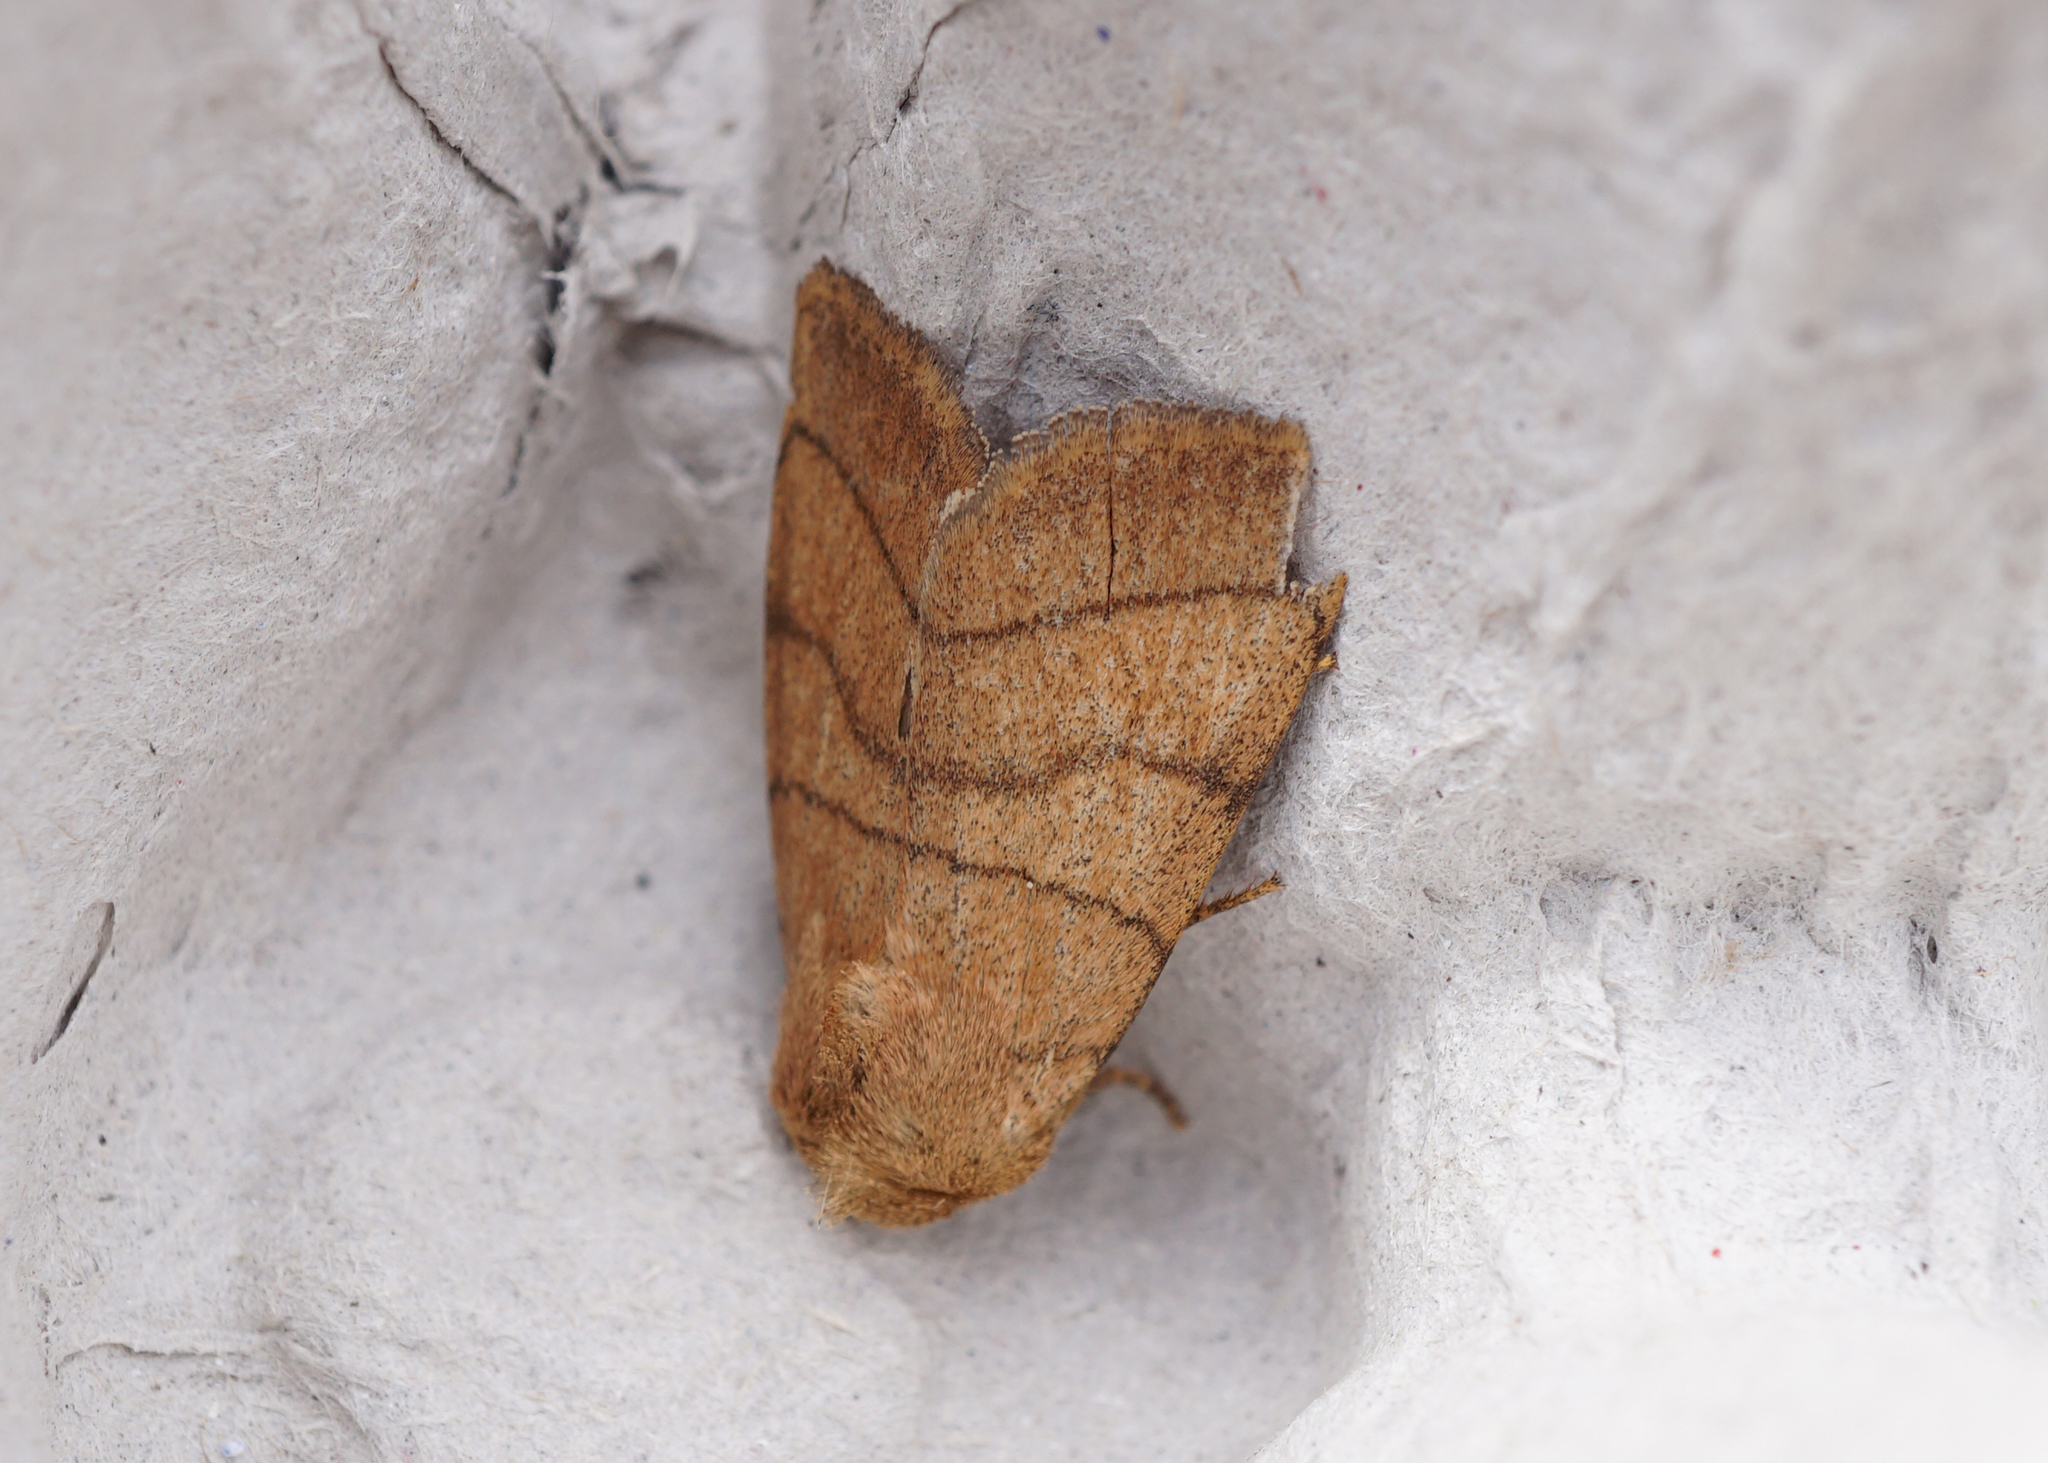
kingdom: Animalia
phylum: Arthropoda
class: Insecta
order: Lepidoptera
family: Noctuidae
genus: Charanyca
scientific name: Charanyca trigrammica
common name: Treble lines
